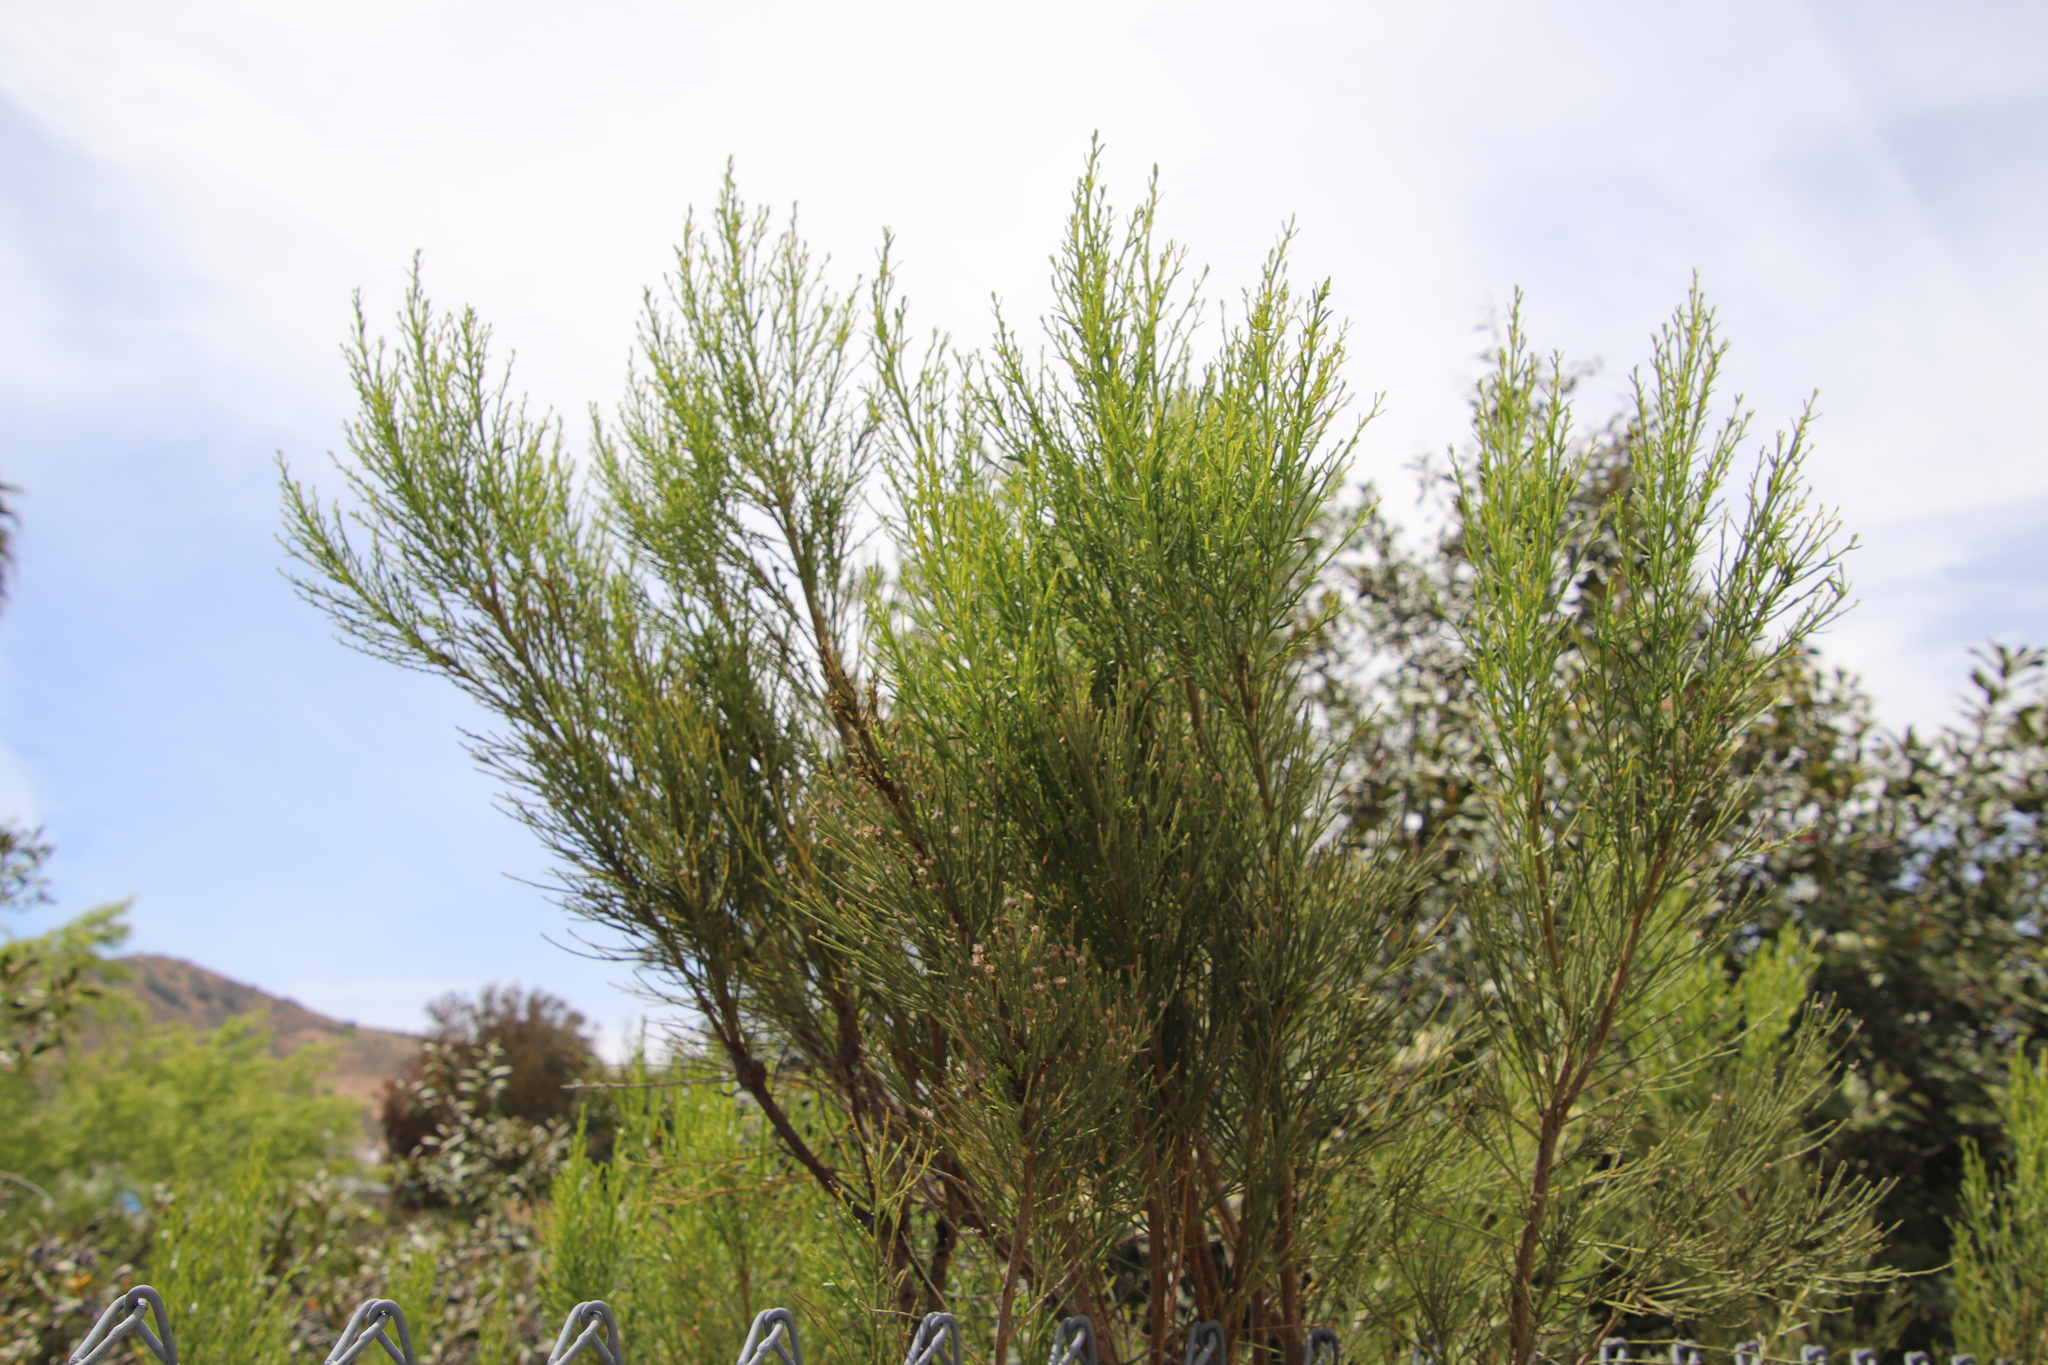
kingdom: Plantae
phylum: Tracheophyta
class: Magnoliopsida
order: Asterales
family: Asteraceae
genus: Baccharis
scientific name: Baccharis sarothroides
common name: Desert-broom
